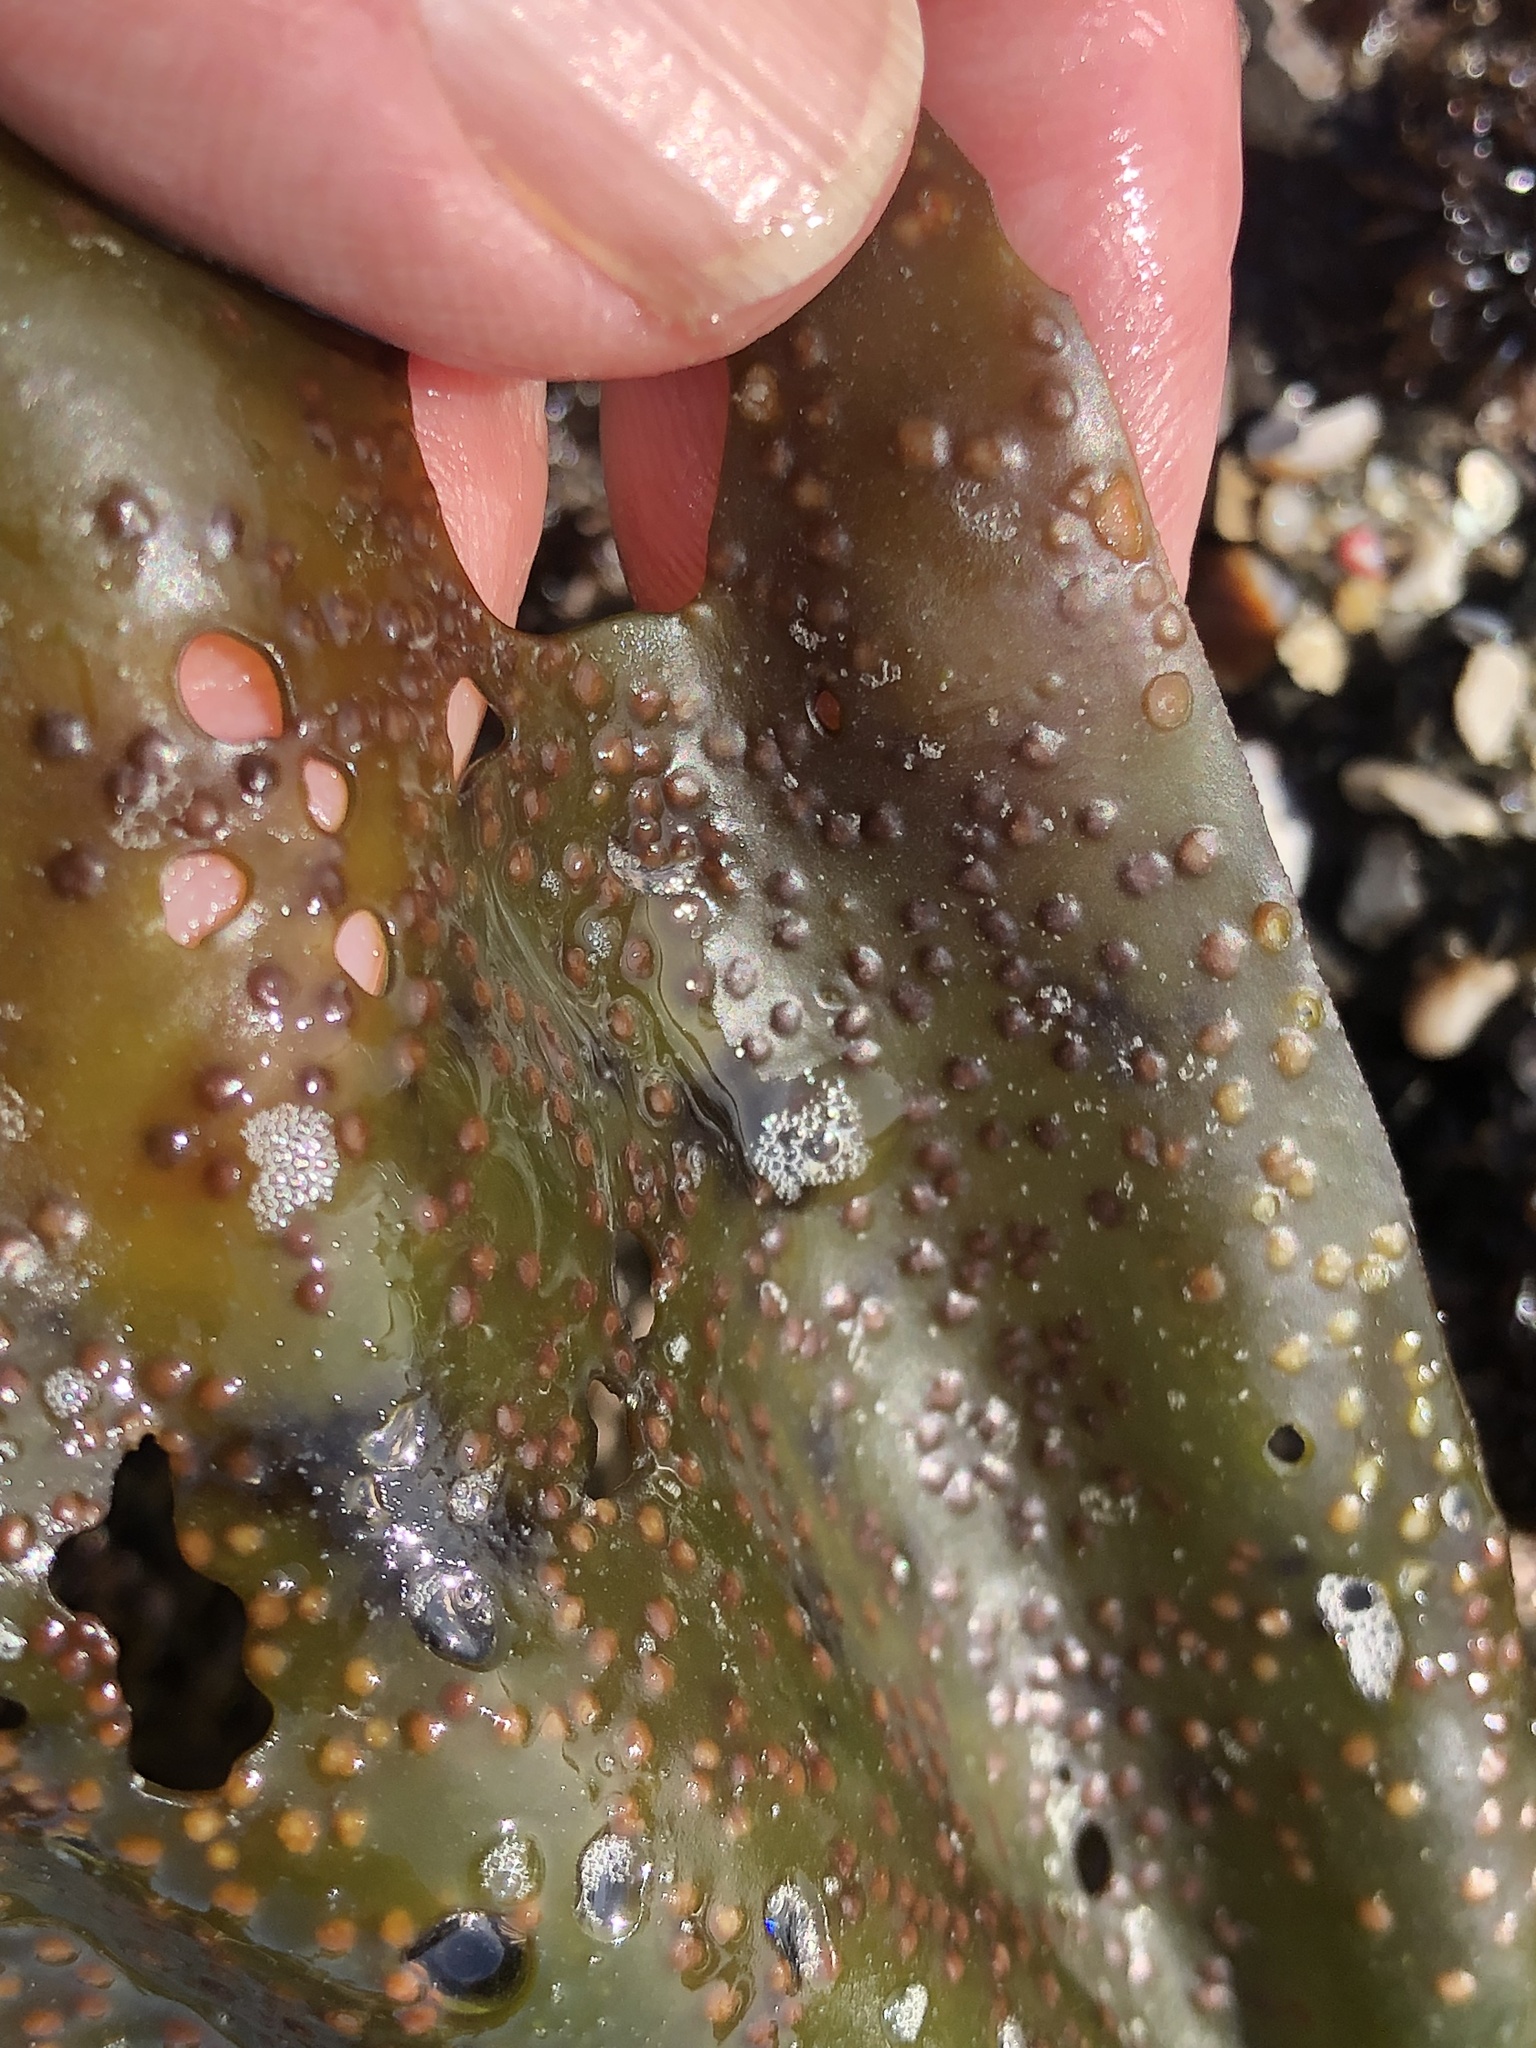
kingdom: Plantae
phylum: Rhodophyta
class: Florideophyceae
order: Gigartinales
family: Gigartinaceae
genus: Mazzaella
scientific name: Mazzaella flaccida
